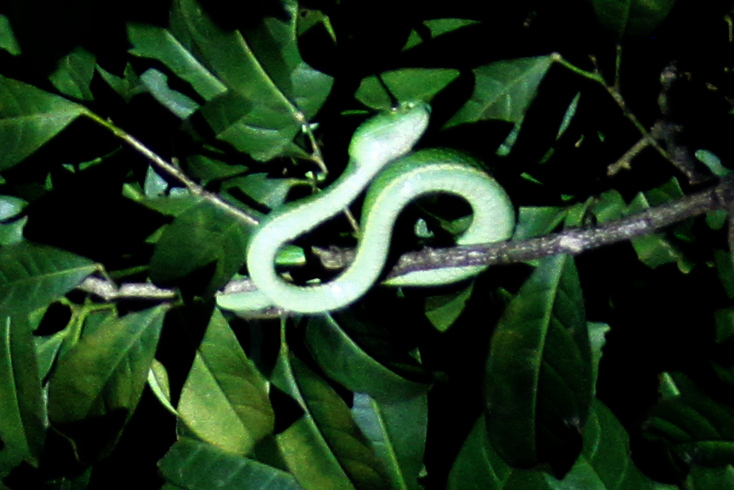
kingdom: Animalia
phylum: Chordata
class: Squamata
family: Viperidae
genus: Bothriechis
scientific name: Bothriechis lateralis
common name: Coffee palm viper
